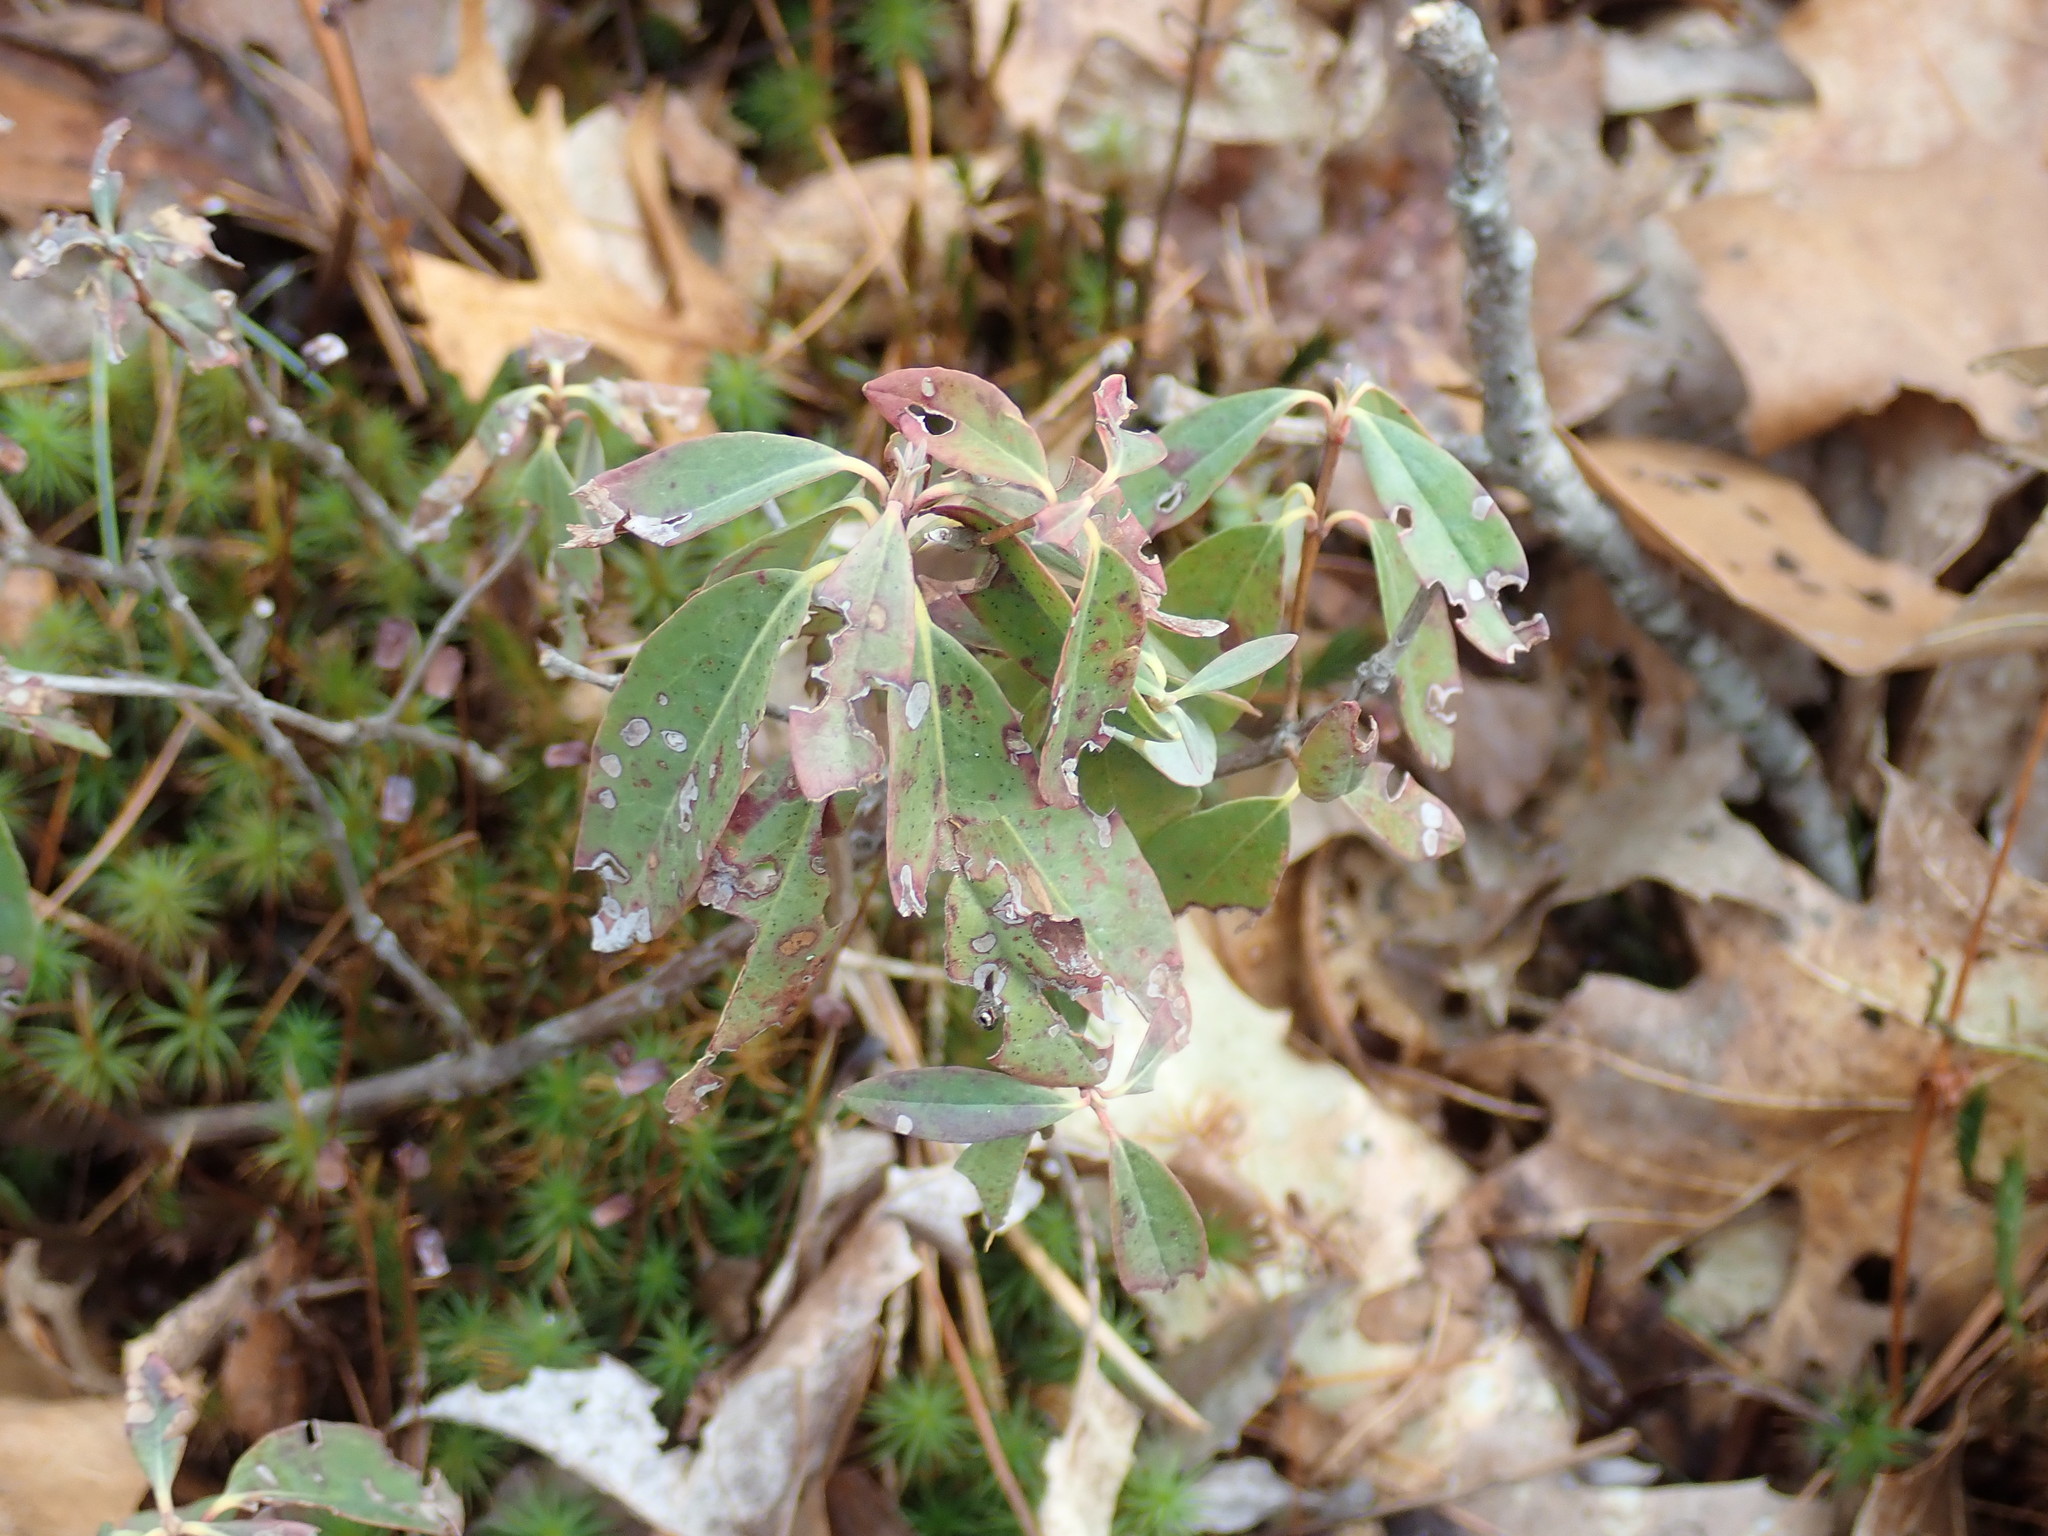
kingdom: Plantae
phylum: Tracheophyta
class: Magnoliopsida
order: Ericales
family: Ericaceae
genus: Kalmia
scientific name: Kalmia angustifolia
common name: Sheep-laurel
